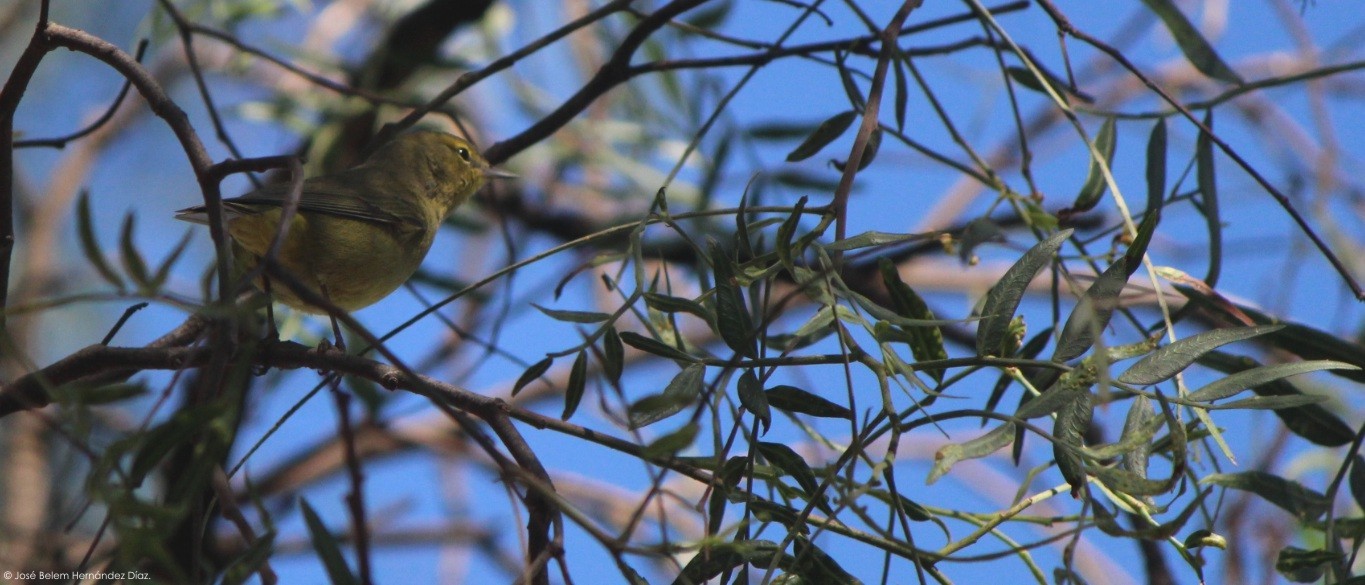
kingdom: Animalia
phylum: Chordata
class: Aves
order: Passeriformes
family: Parulidae
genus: Leiothlypis
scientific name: Leiothlypis celata
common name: Orange-crowned warbler
